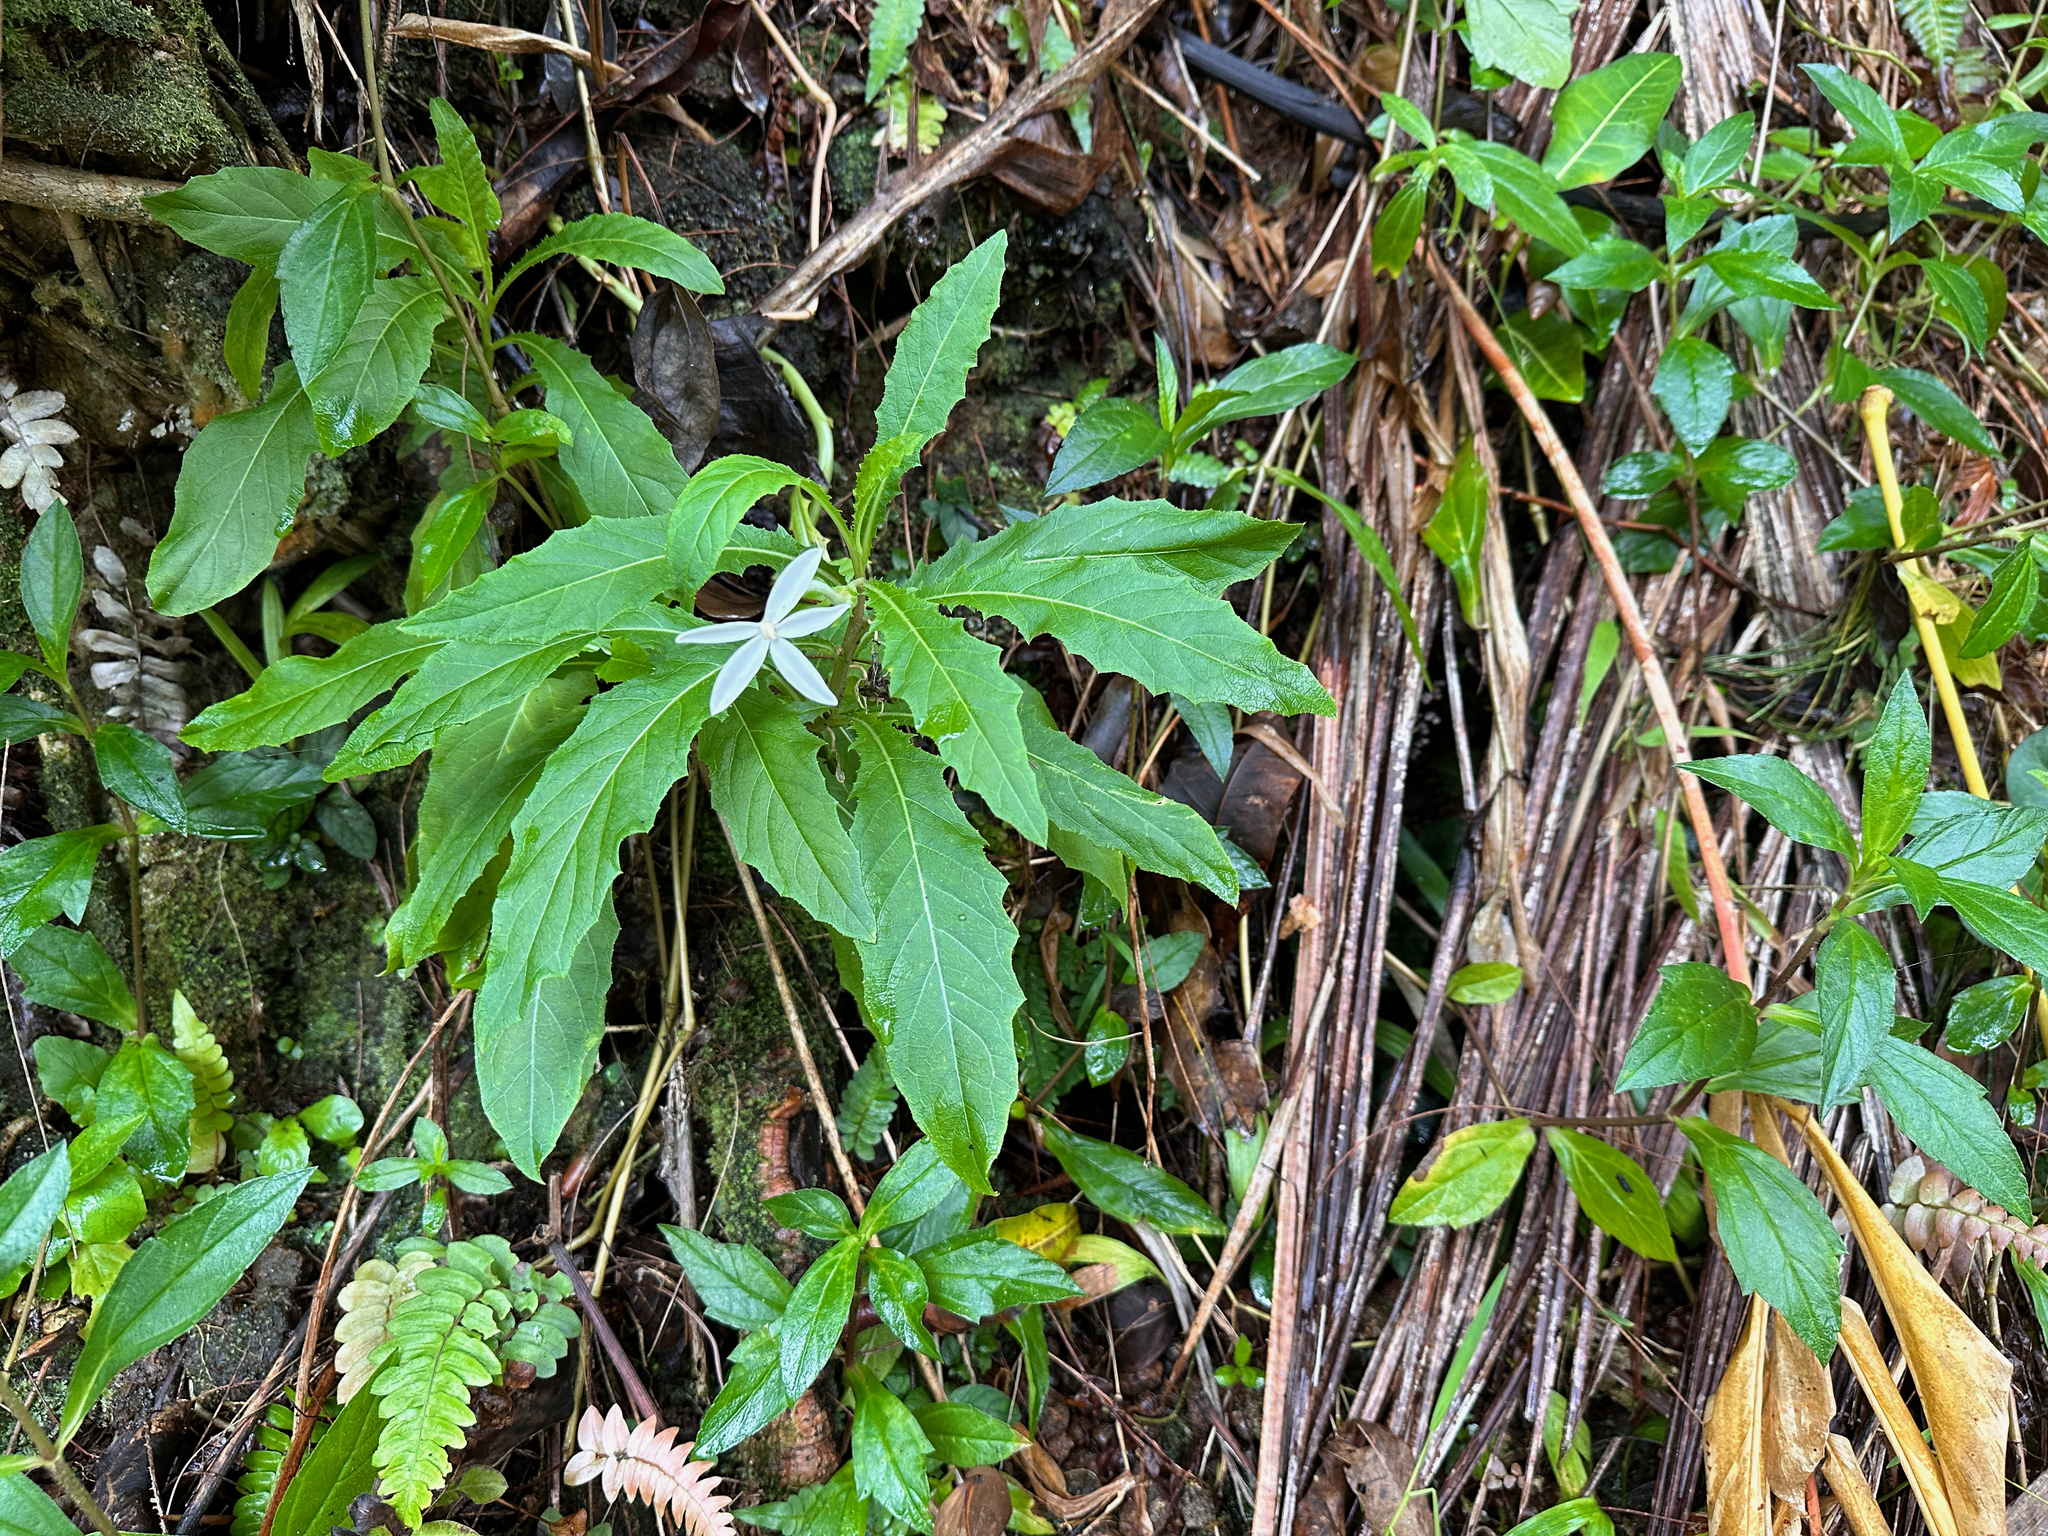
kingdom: Plantae
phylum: Tracheophyta
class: Magnoliopsida
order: Asterales
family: Campanulaceae
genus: Hippobroma
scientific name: Hippobroma longiflora
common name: Madamfate
